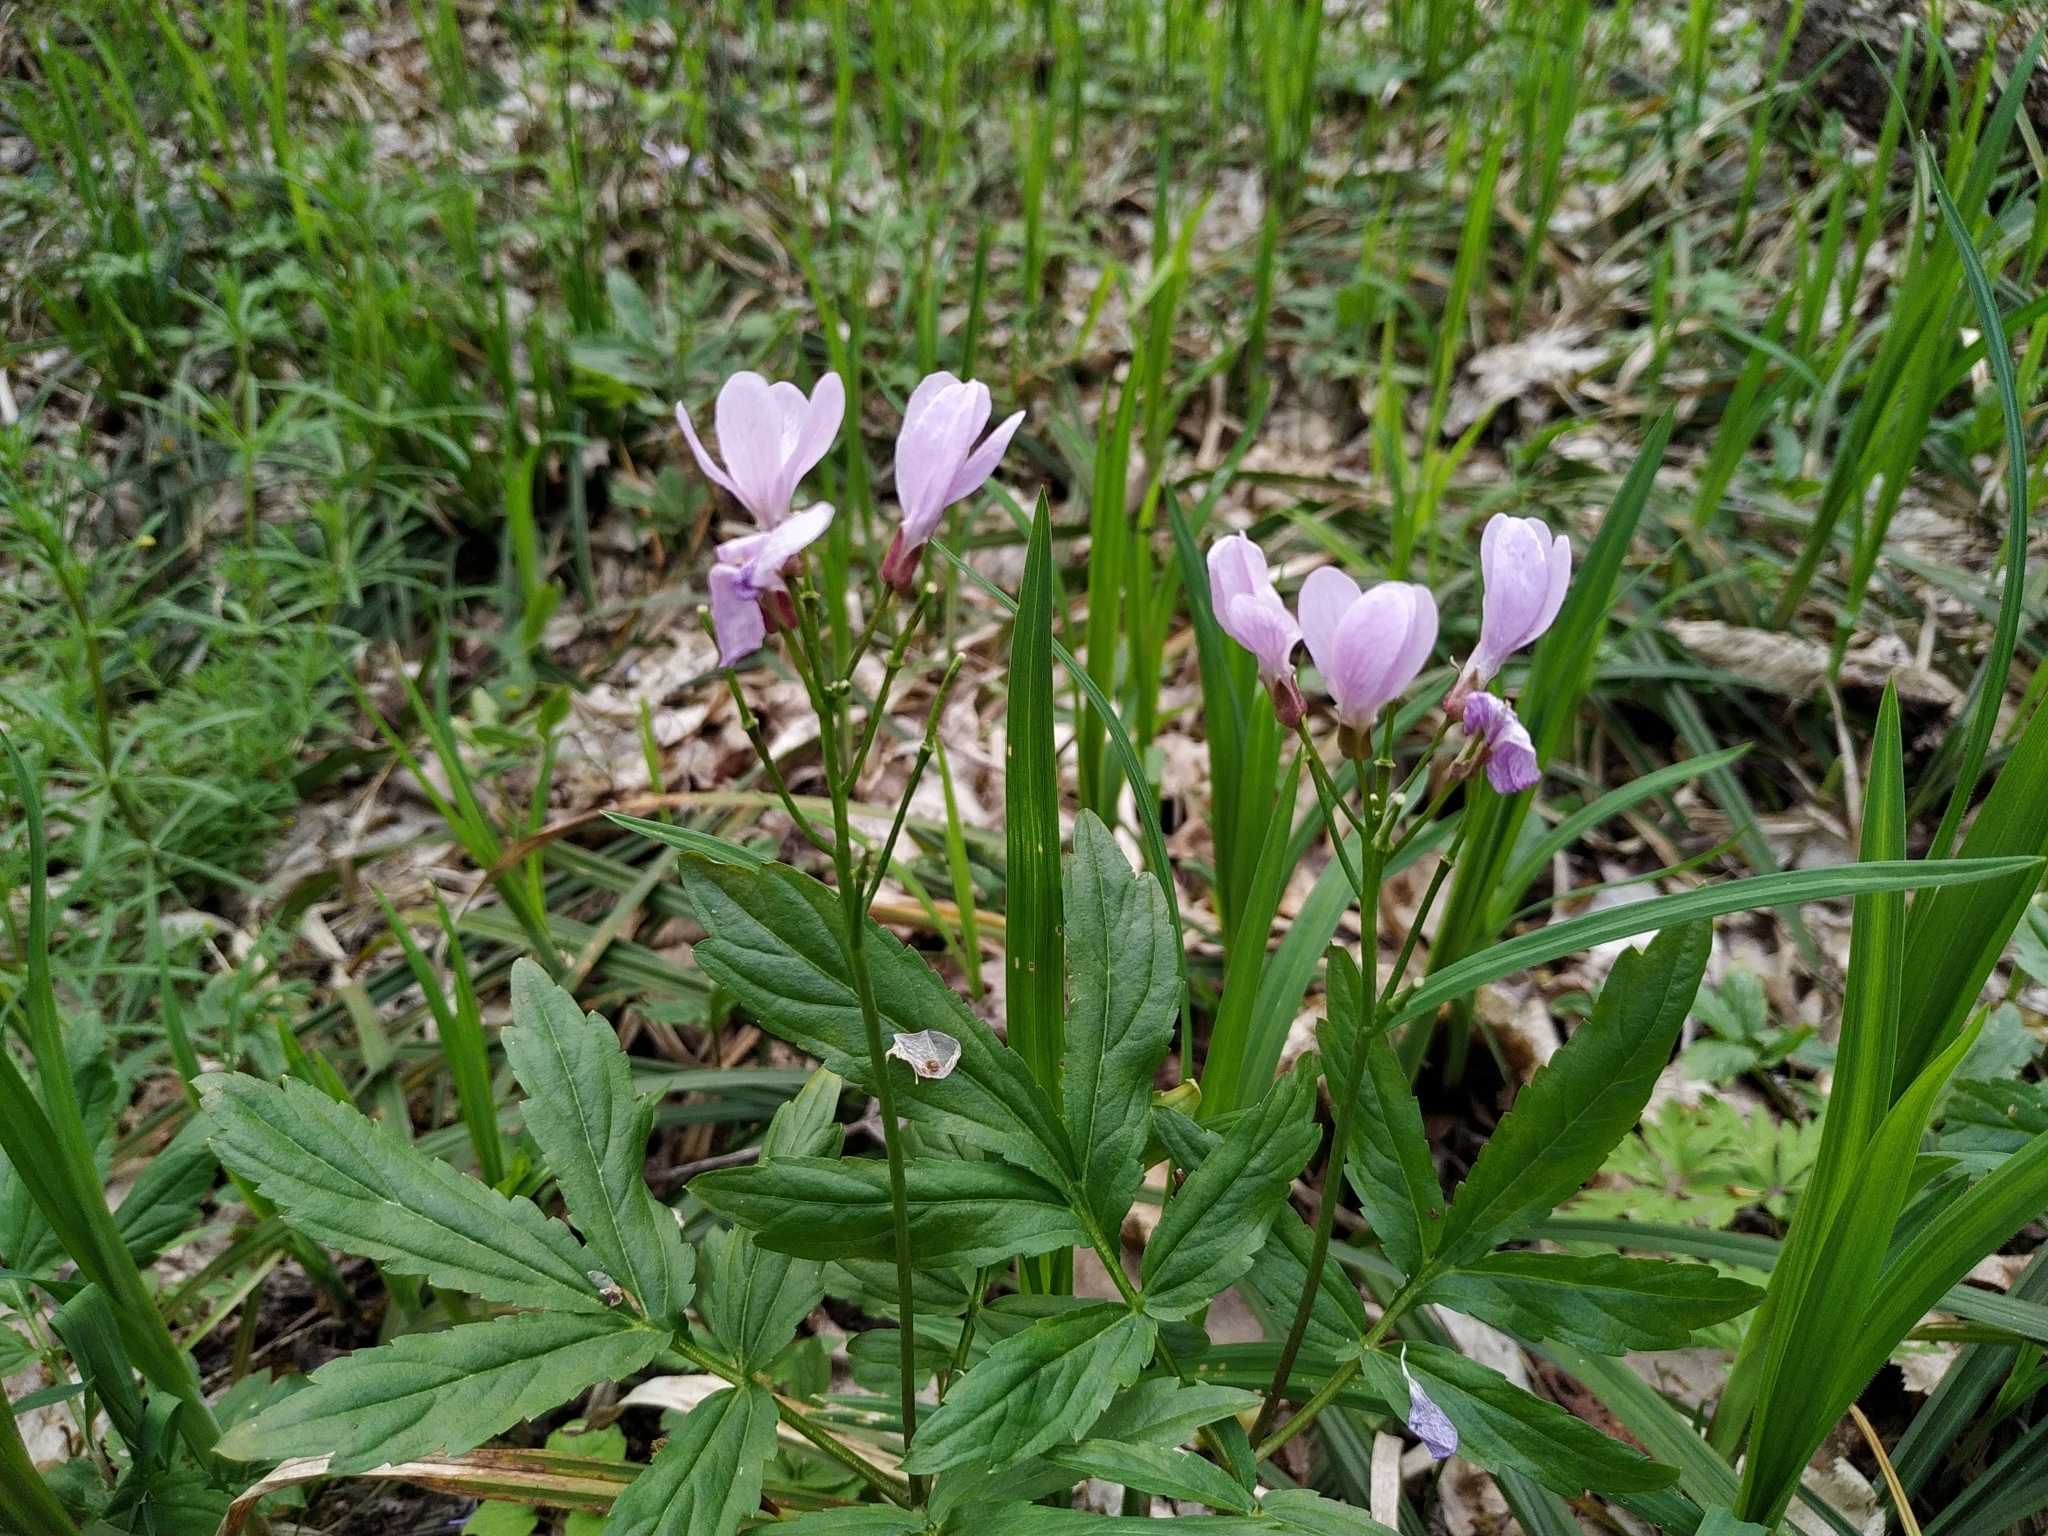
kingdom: Plantae
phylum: Tracheophyta
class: Magnoliopsida
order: Brassicales
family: Brassicaceae
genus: Cardamine
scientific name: Cardamine quinquefolia
